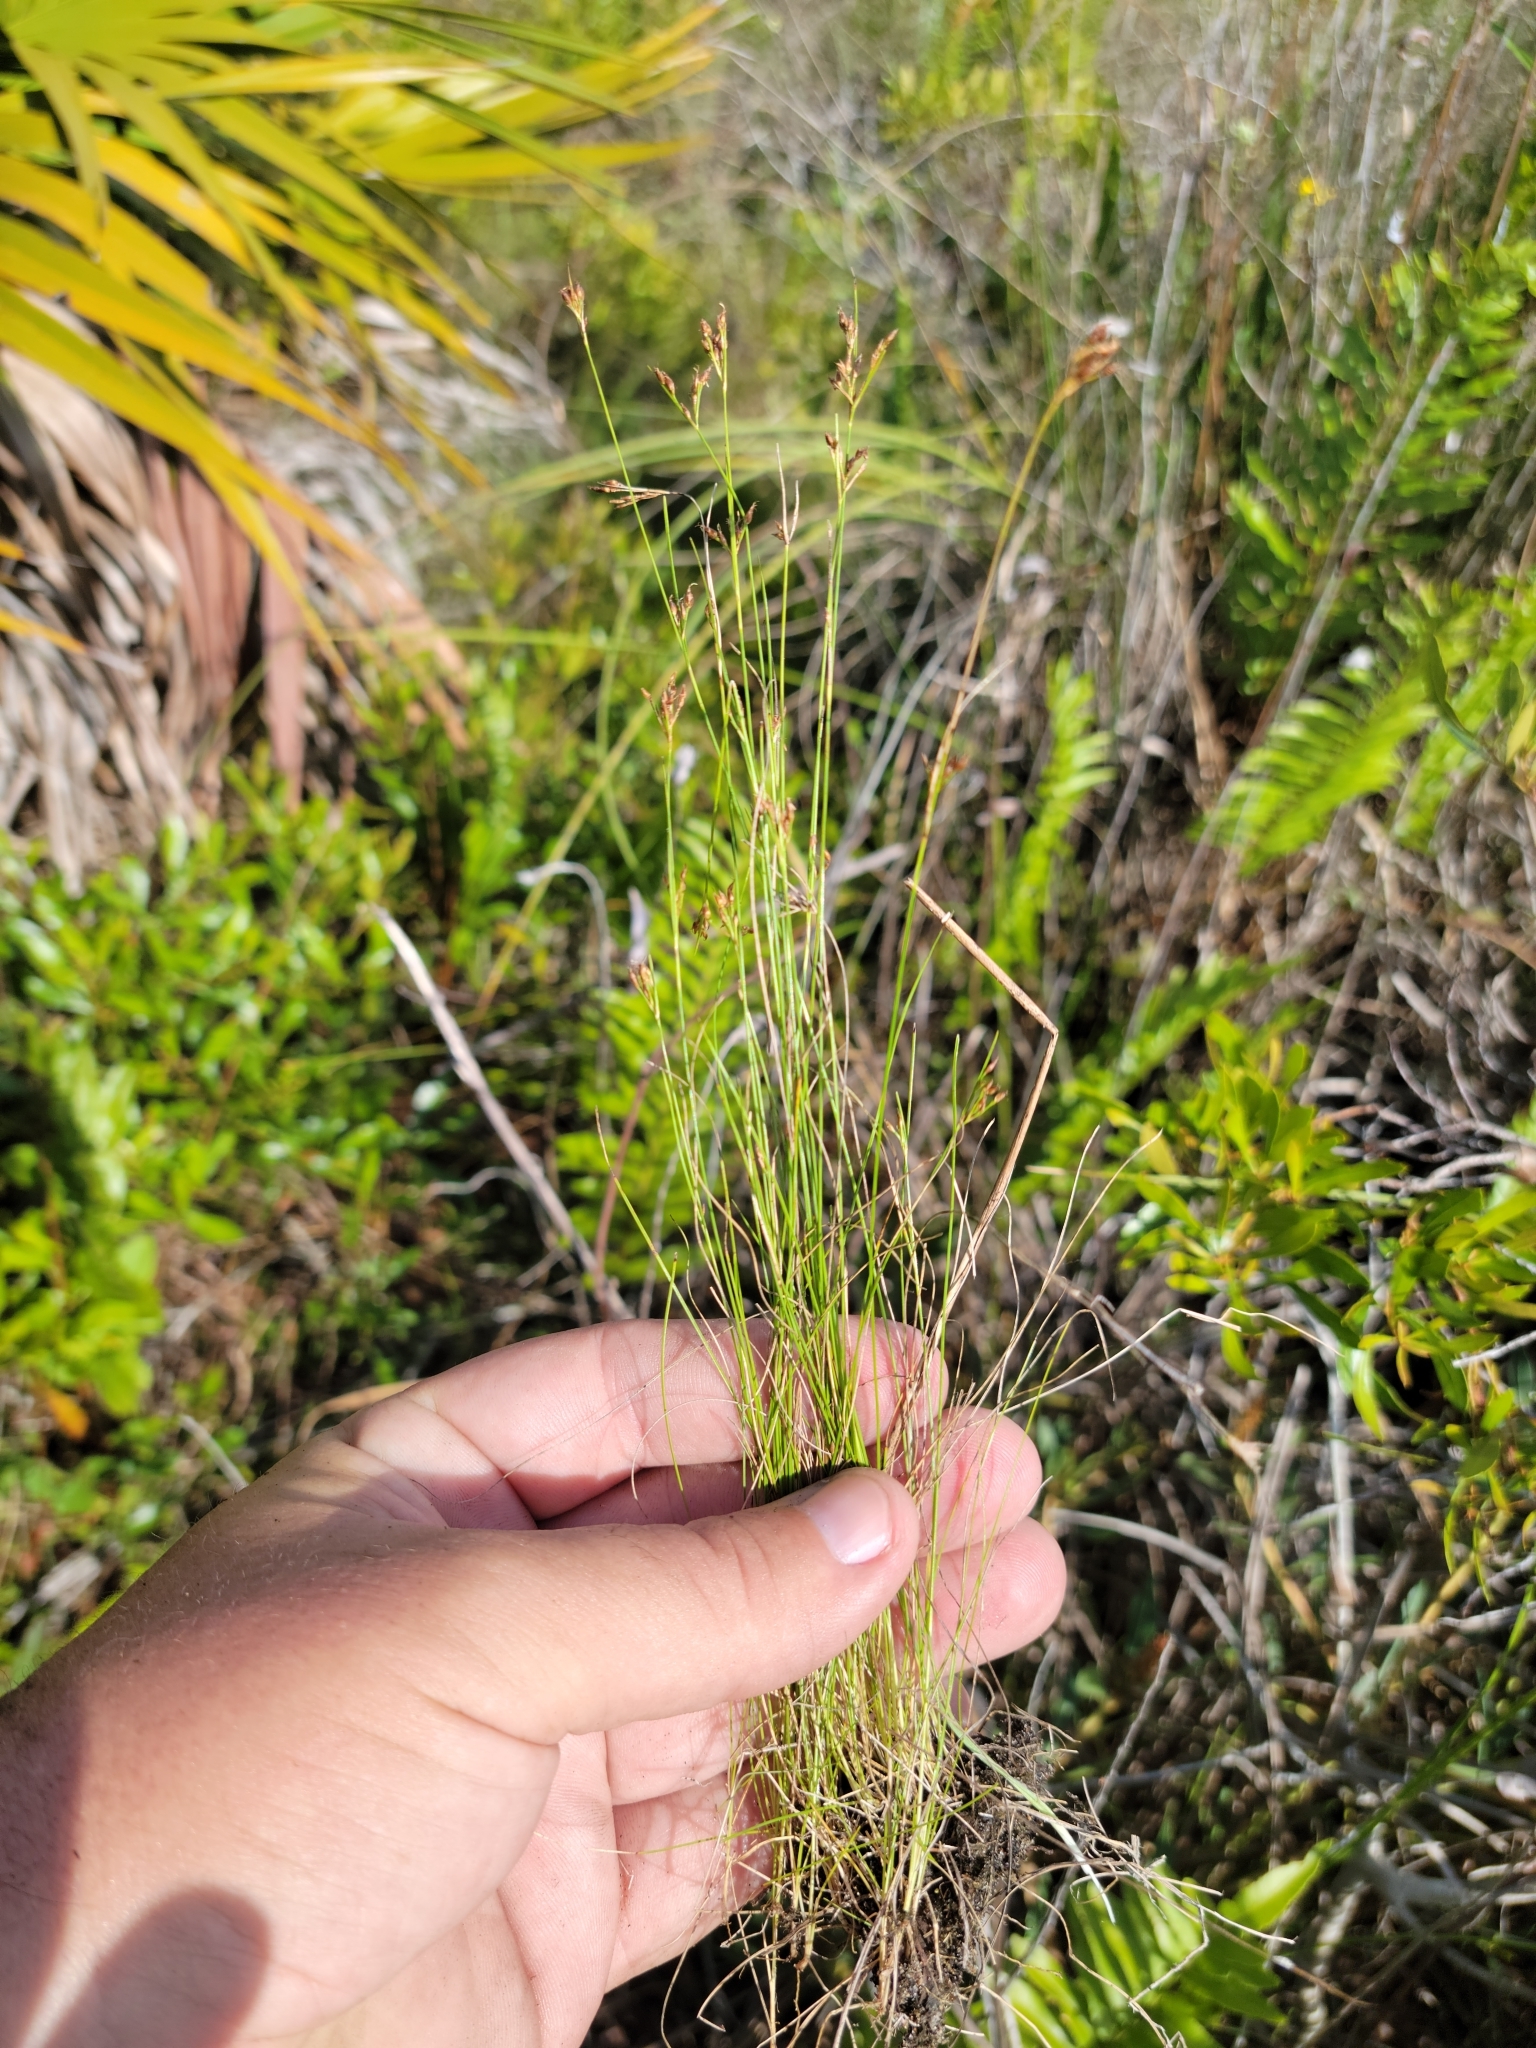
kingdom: Plantae
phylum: Tracheophyta
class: Liliopsida
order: Poales
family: Cyperaceae
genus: Rhynchospora
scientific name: Rhynchospora divergens
